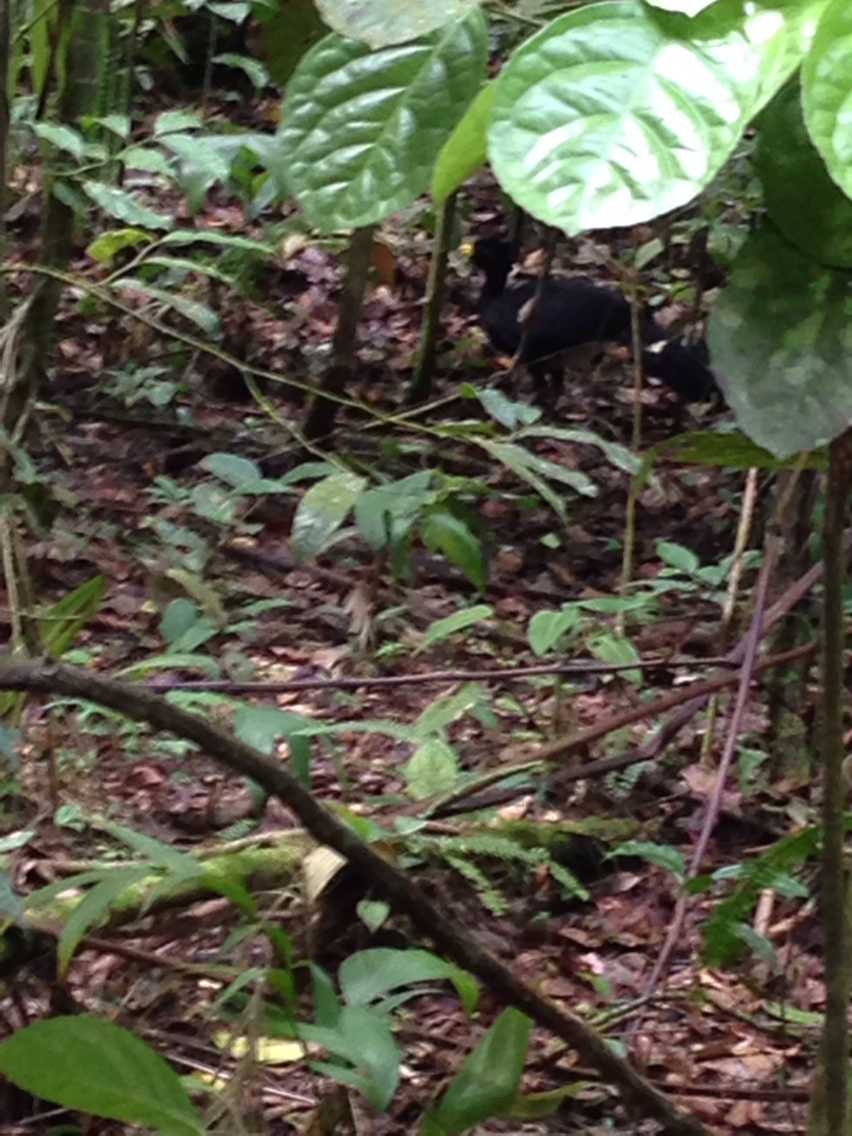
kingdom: Animalia
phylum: Chordata
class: Aves
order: Galliformes
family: Cracidae
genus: Crax
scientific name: Crax rubra
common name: Great curassow
